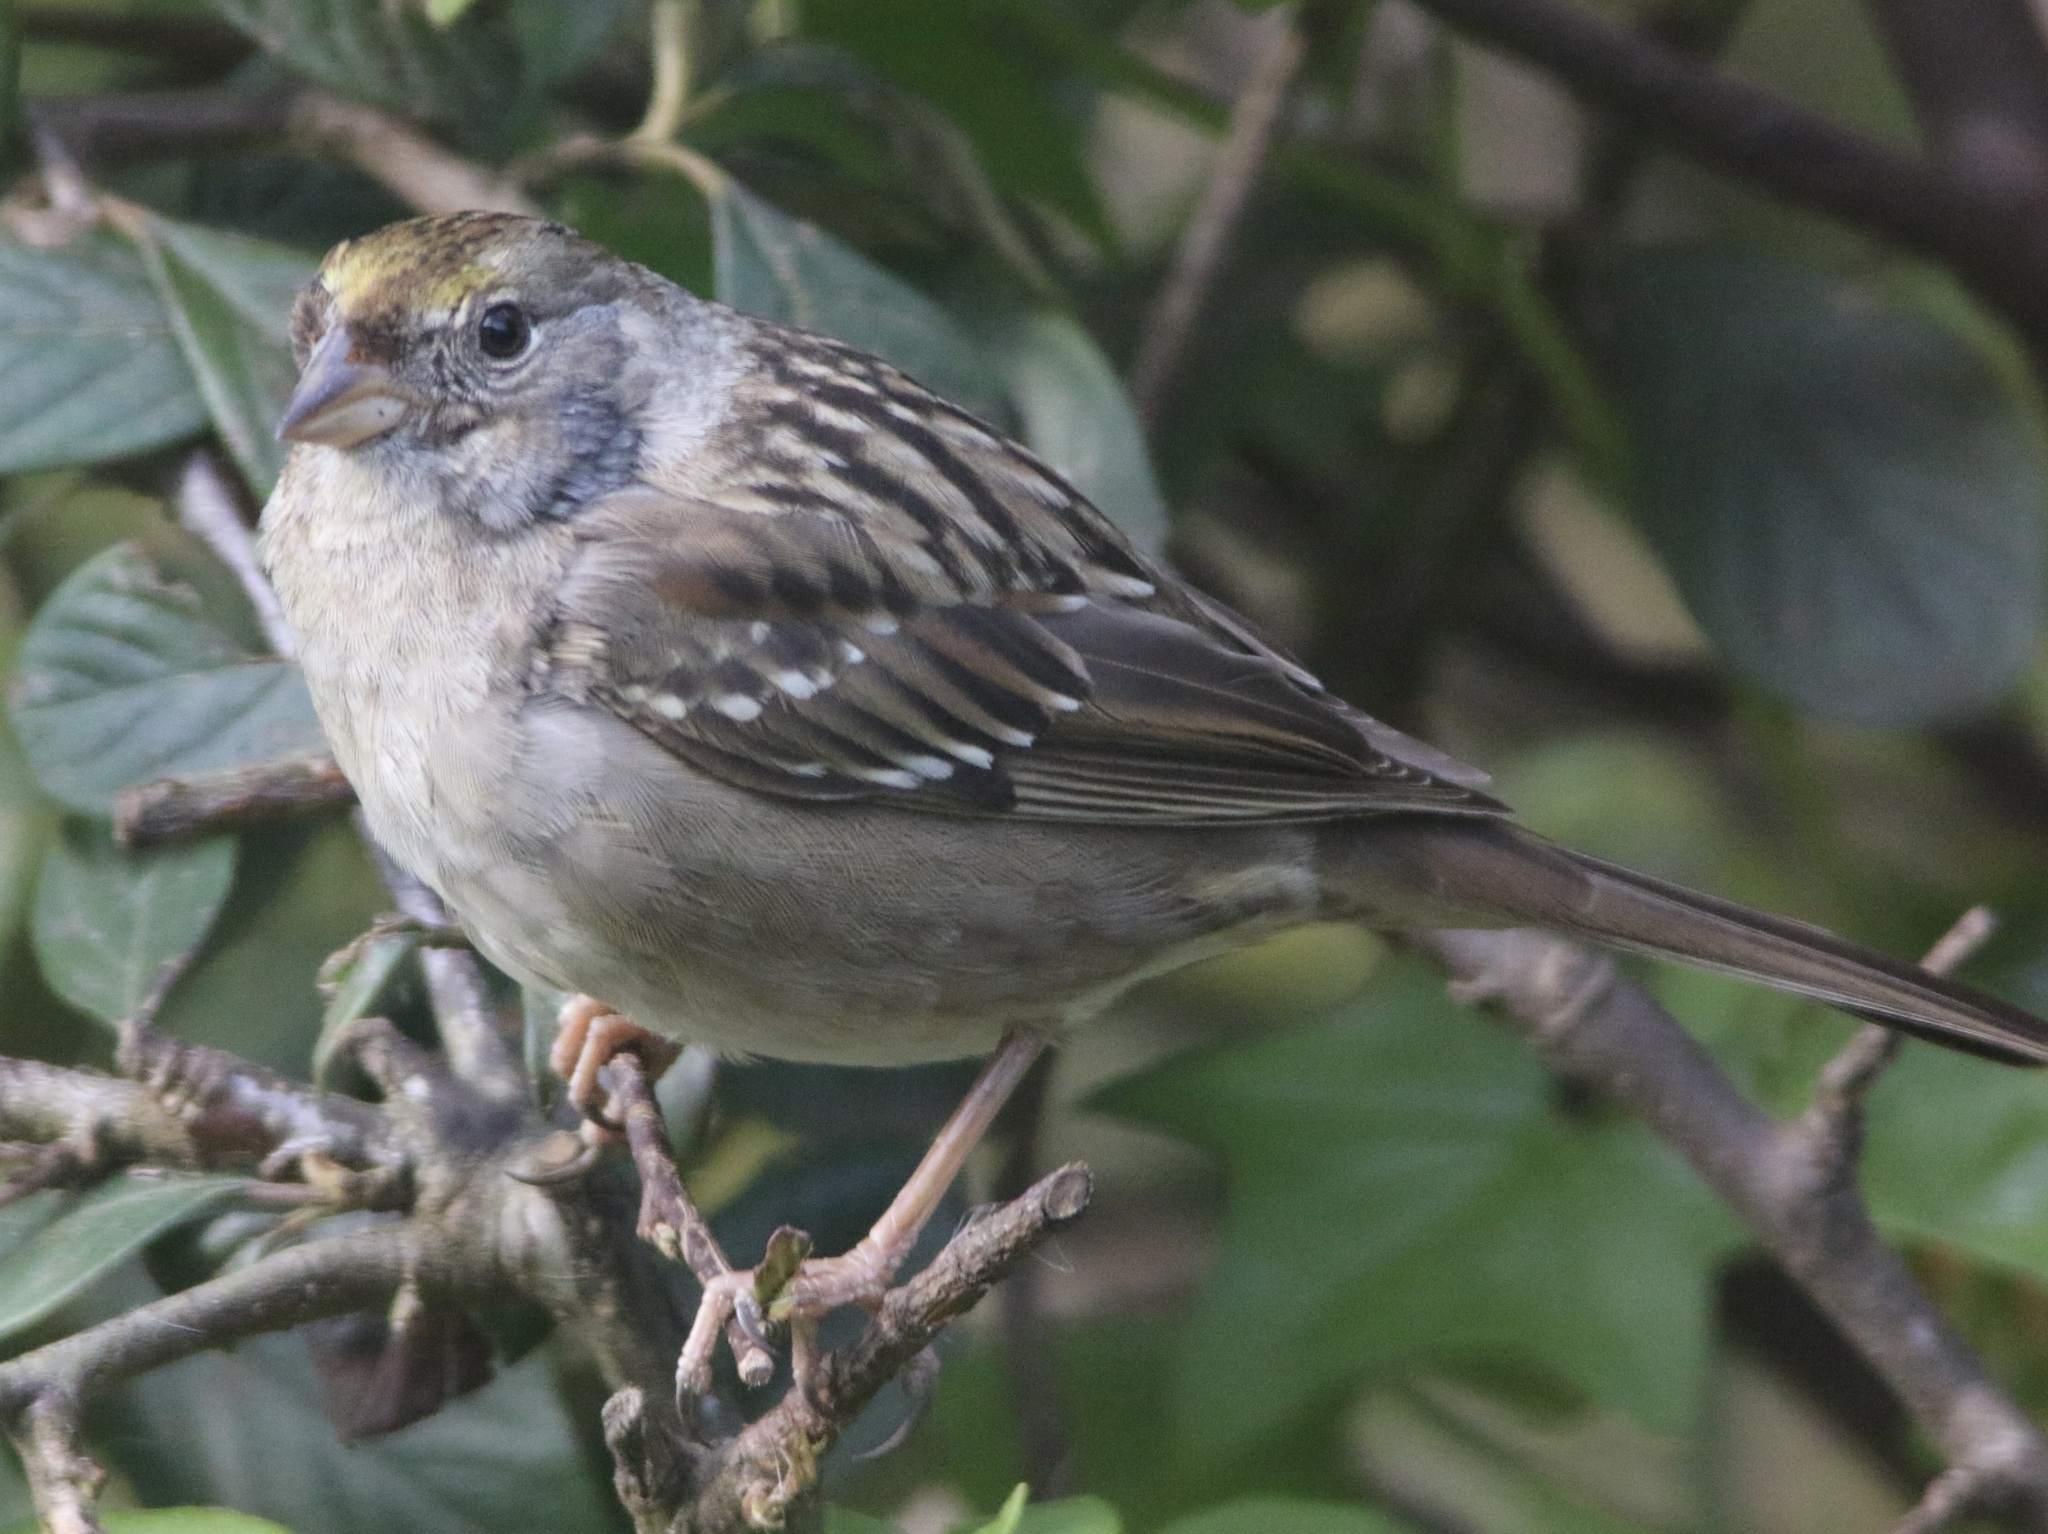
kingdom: Animalia
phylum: Chordata
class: Aves
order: Passeriformes
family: Passerellidae
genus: Zonotrichia
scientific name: Zonotrichia atricapilla
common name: Golden-crowned sparrow
